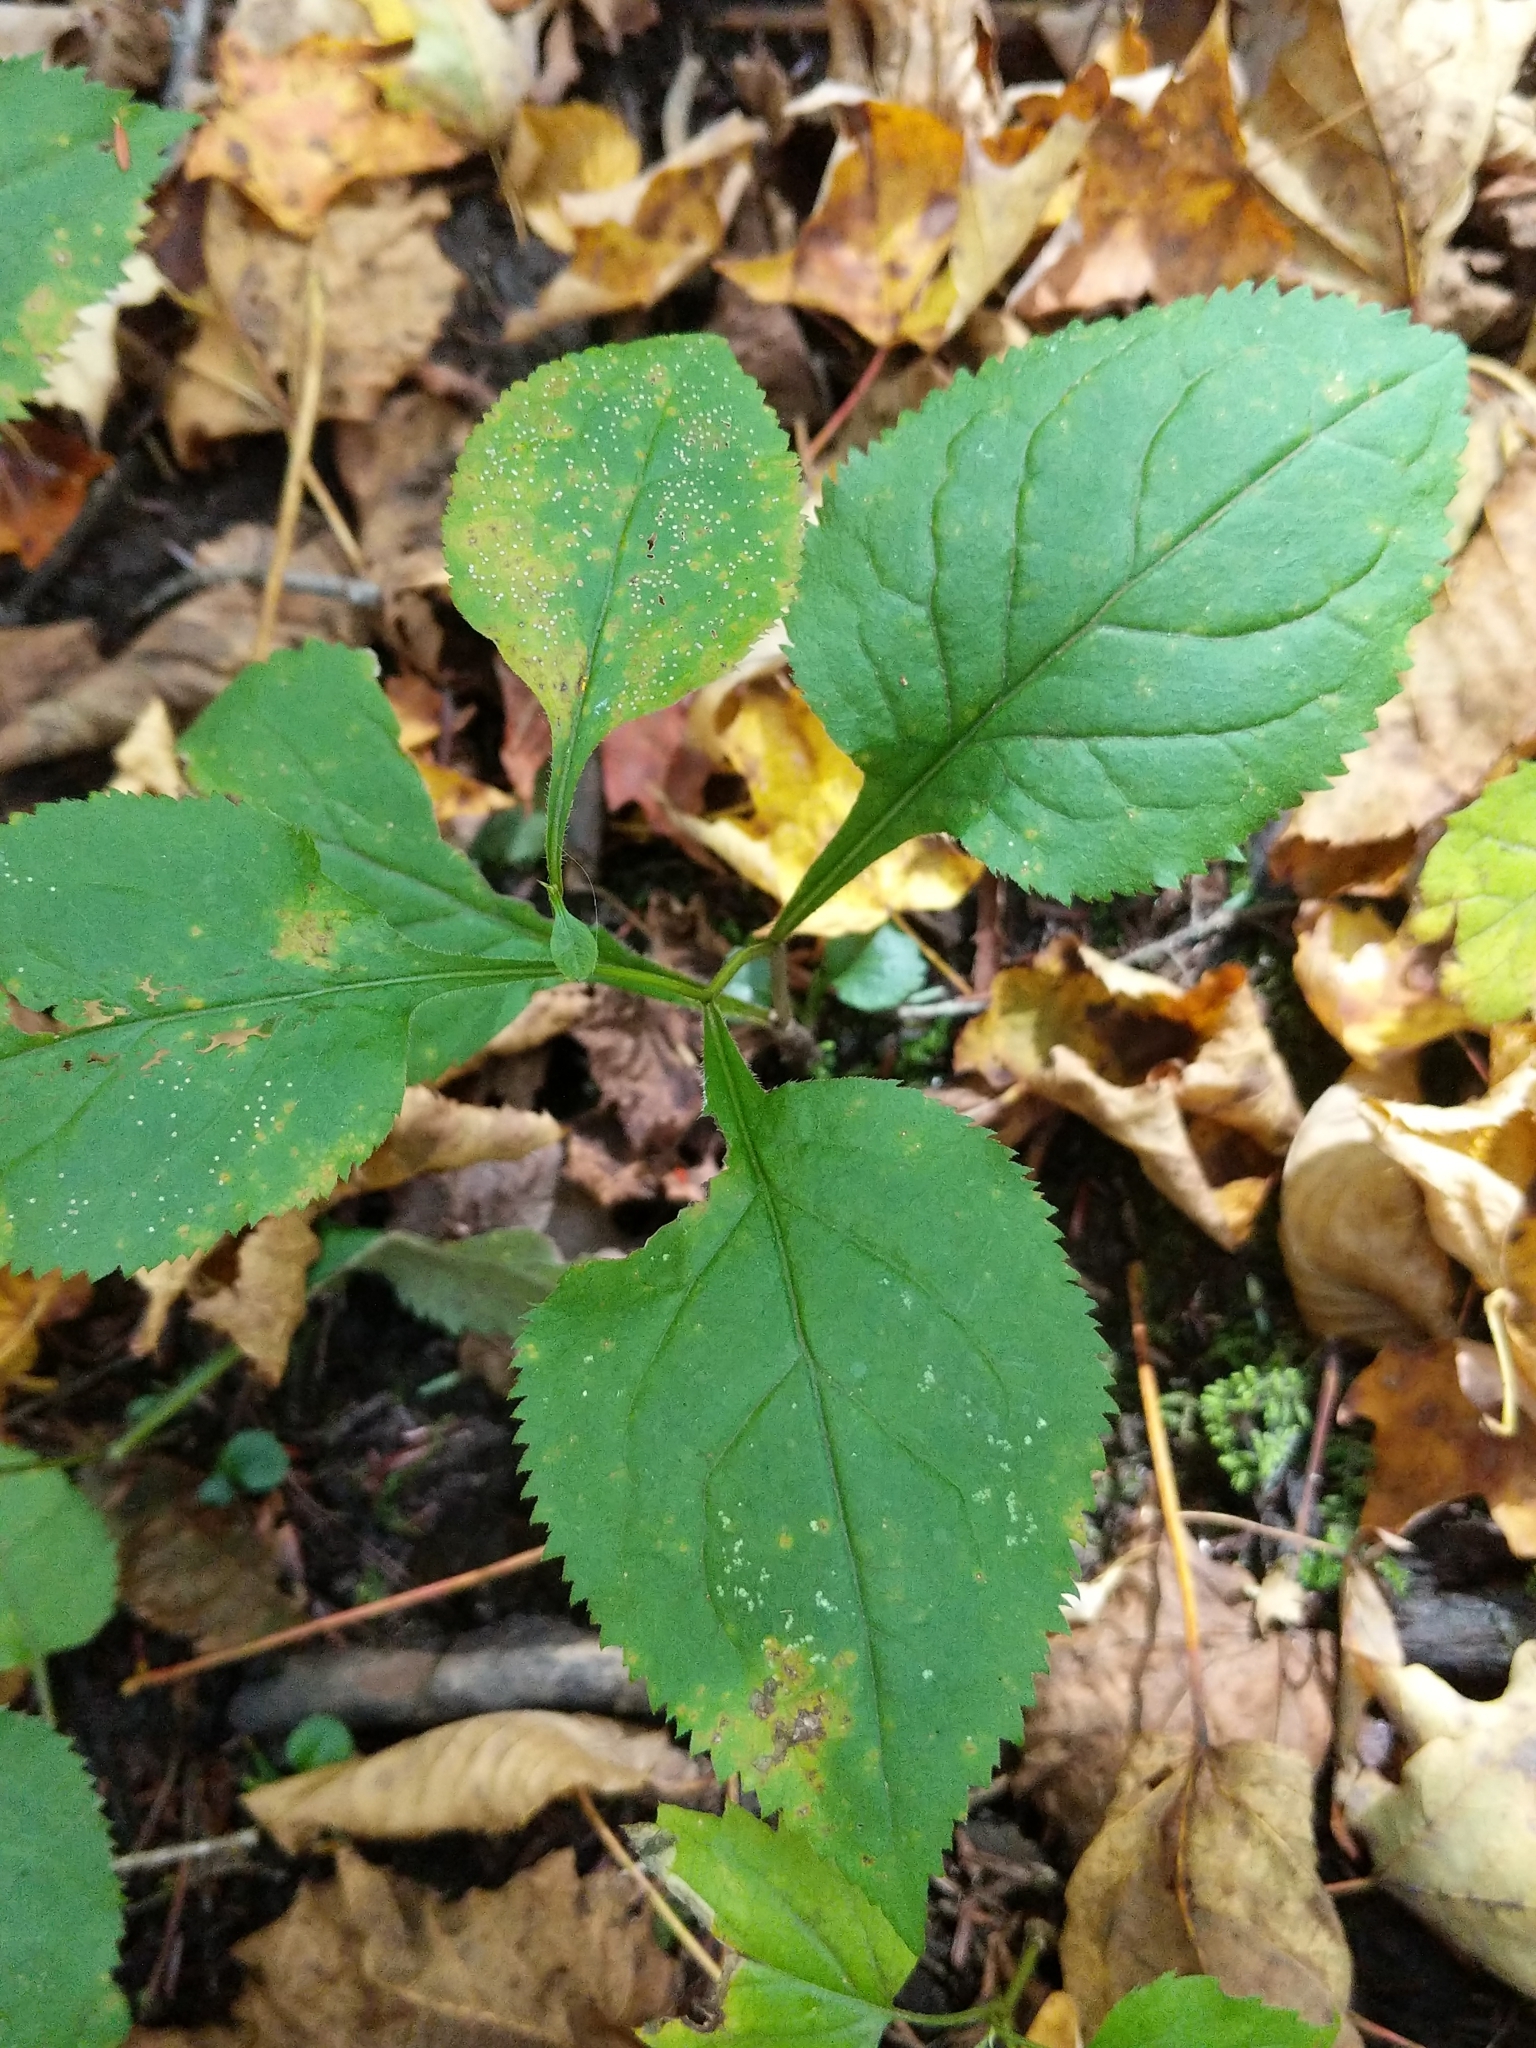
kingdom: Plantae
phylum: Tracheophyta
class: Magnoliopsida
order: Asterales
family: Asteraceae
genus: Solidago
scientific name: Solidago flexicaulis
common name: Zig-zag goldenrod
